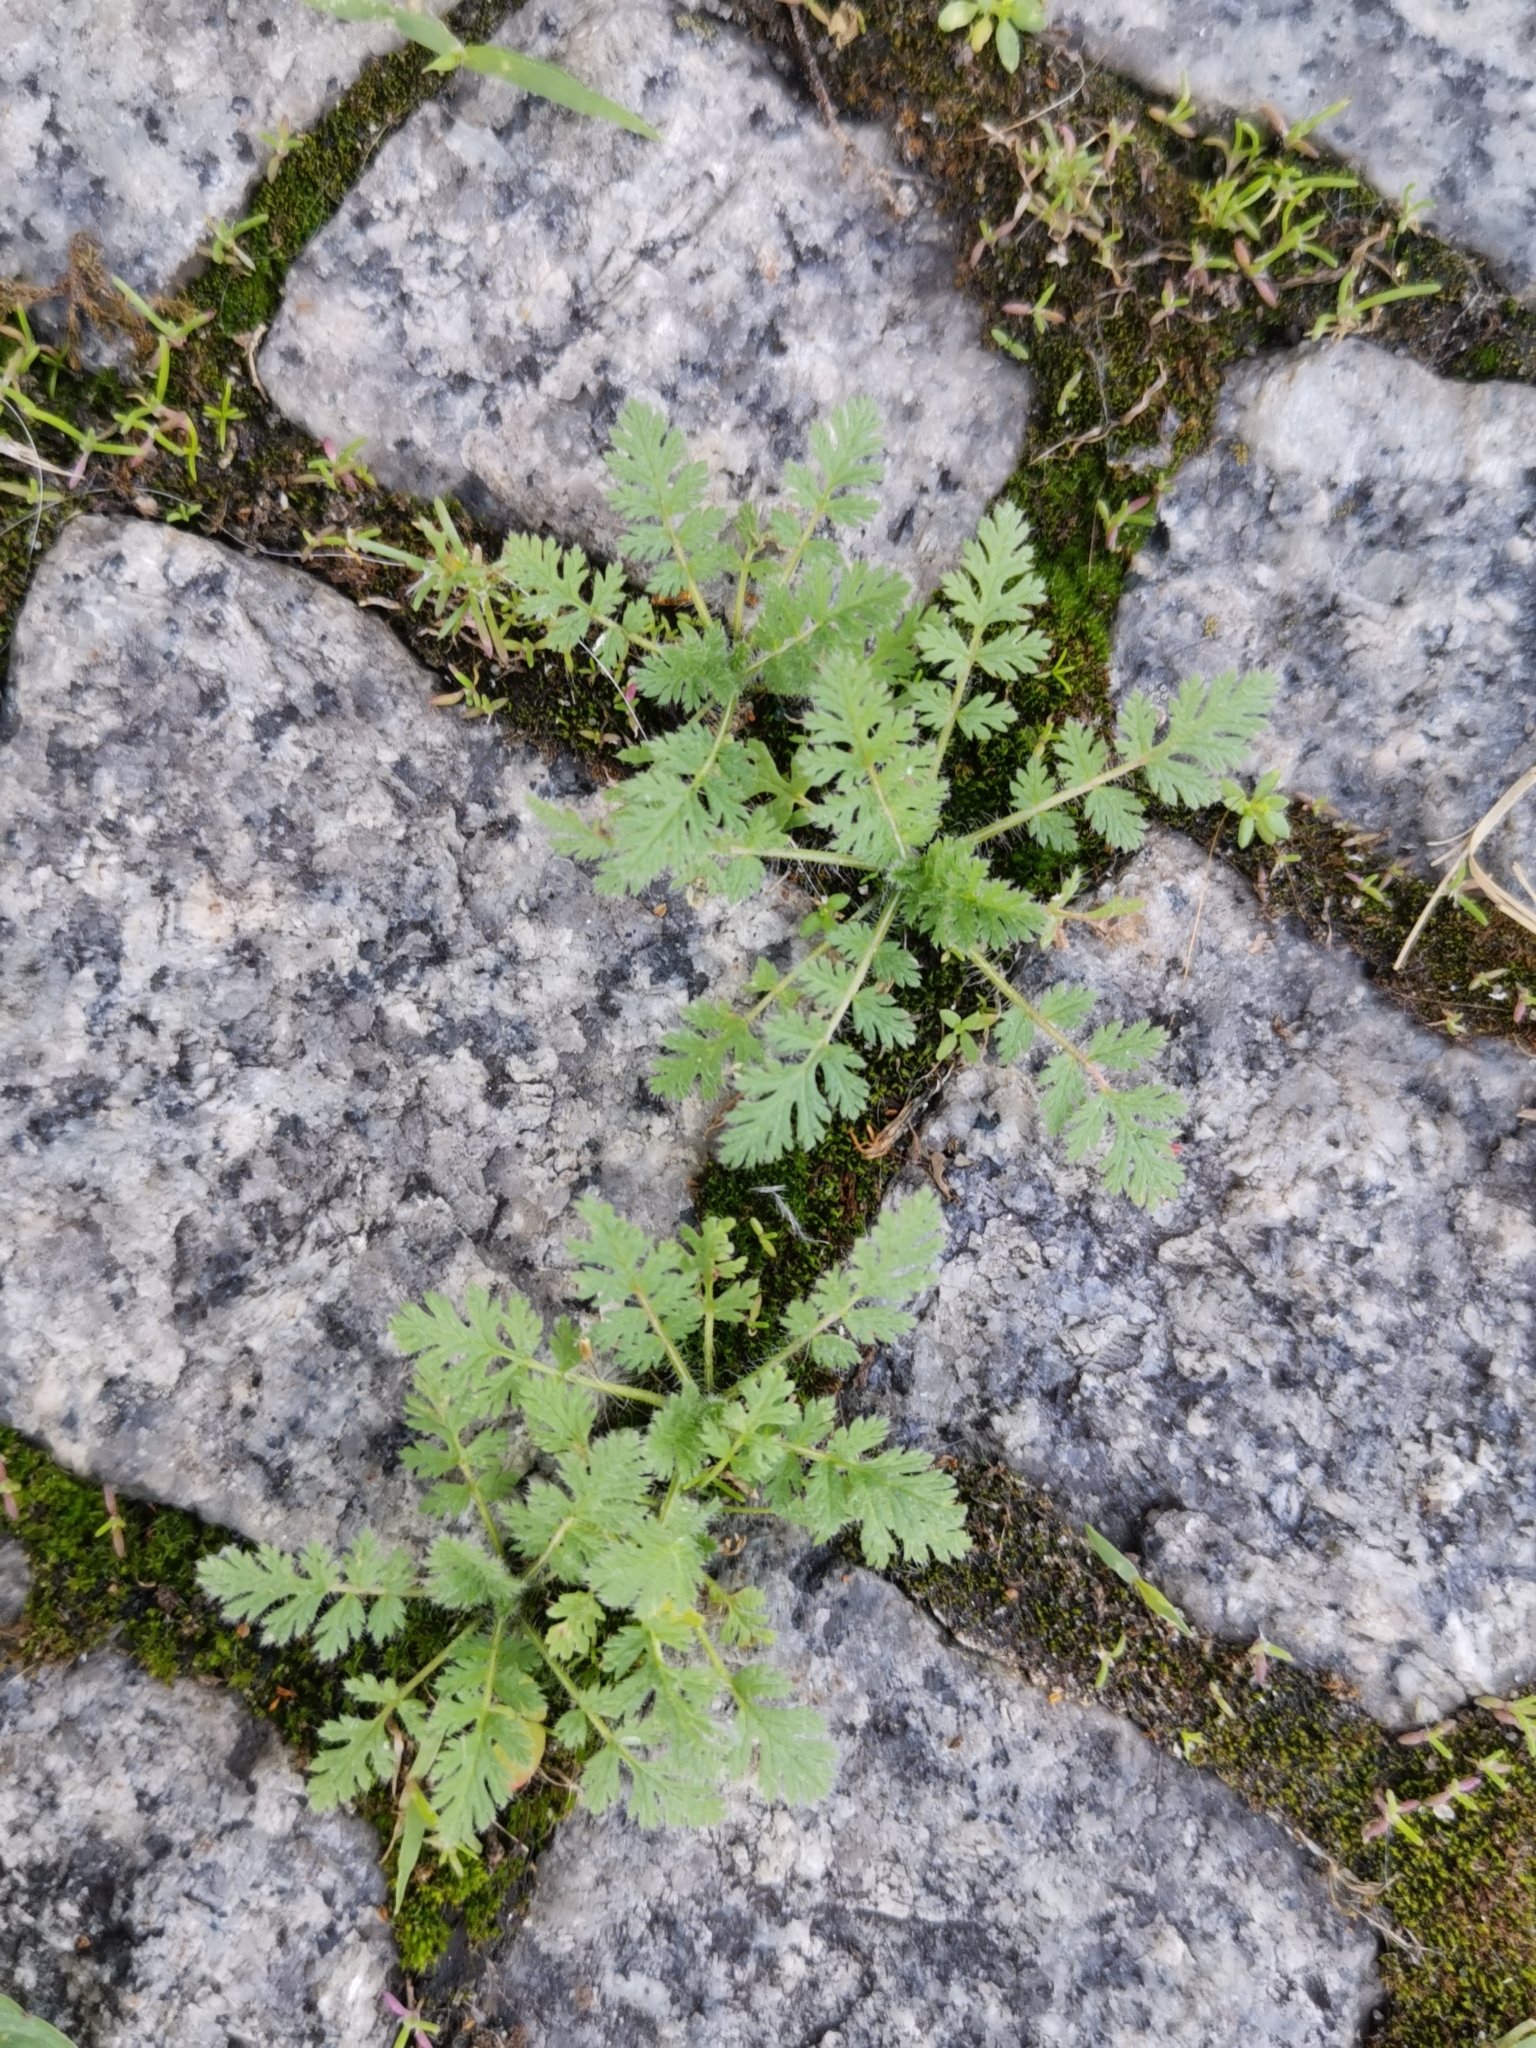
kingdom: Plantae
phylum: Tracheophyta
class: Magnoliopsida
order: Geraniales
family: Geraniaceae
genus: Erodium
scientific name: Erodium cicutarium
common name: Common stork's-bill
